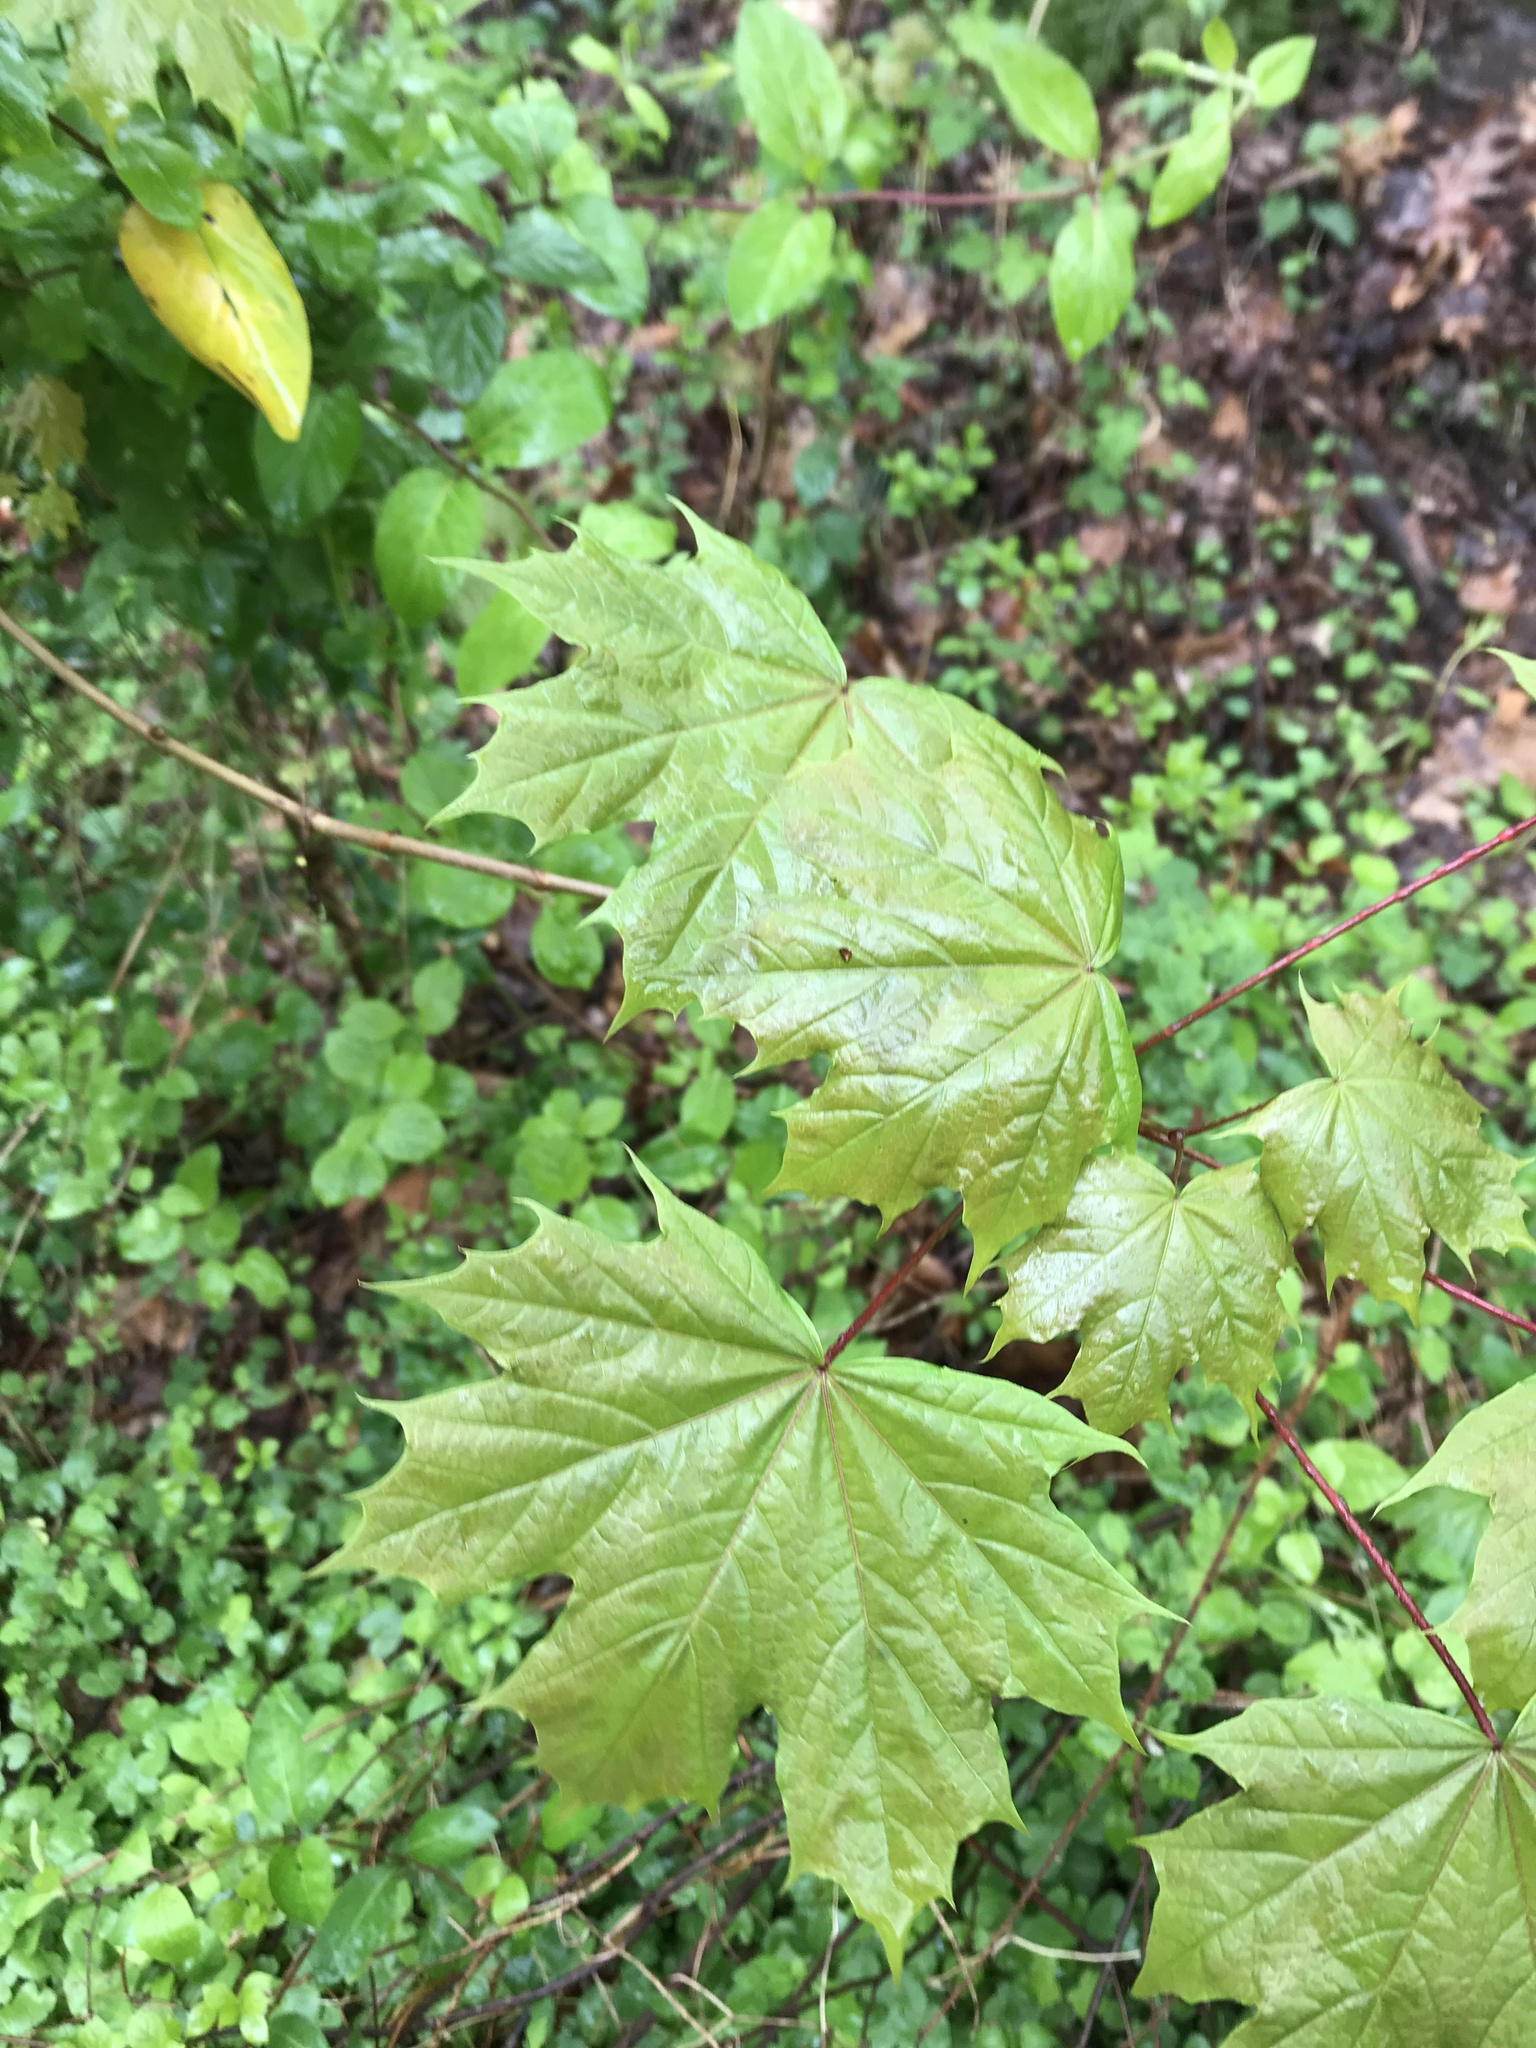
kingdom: Plantae
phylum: Tracheophyta
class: Magnoliopsida
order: Sapindales
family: Sapindaceae
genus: Acer
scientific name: Acer platanoides
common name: Norway maple
